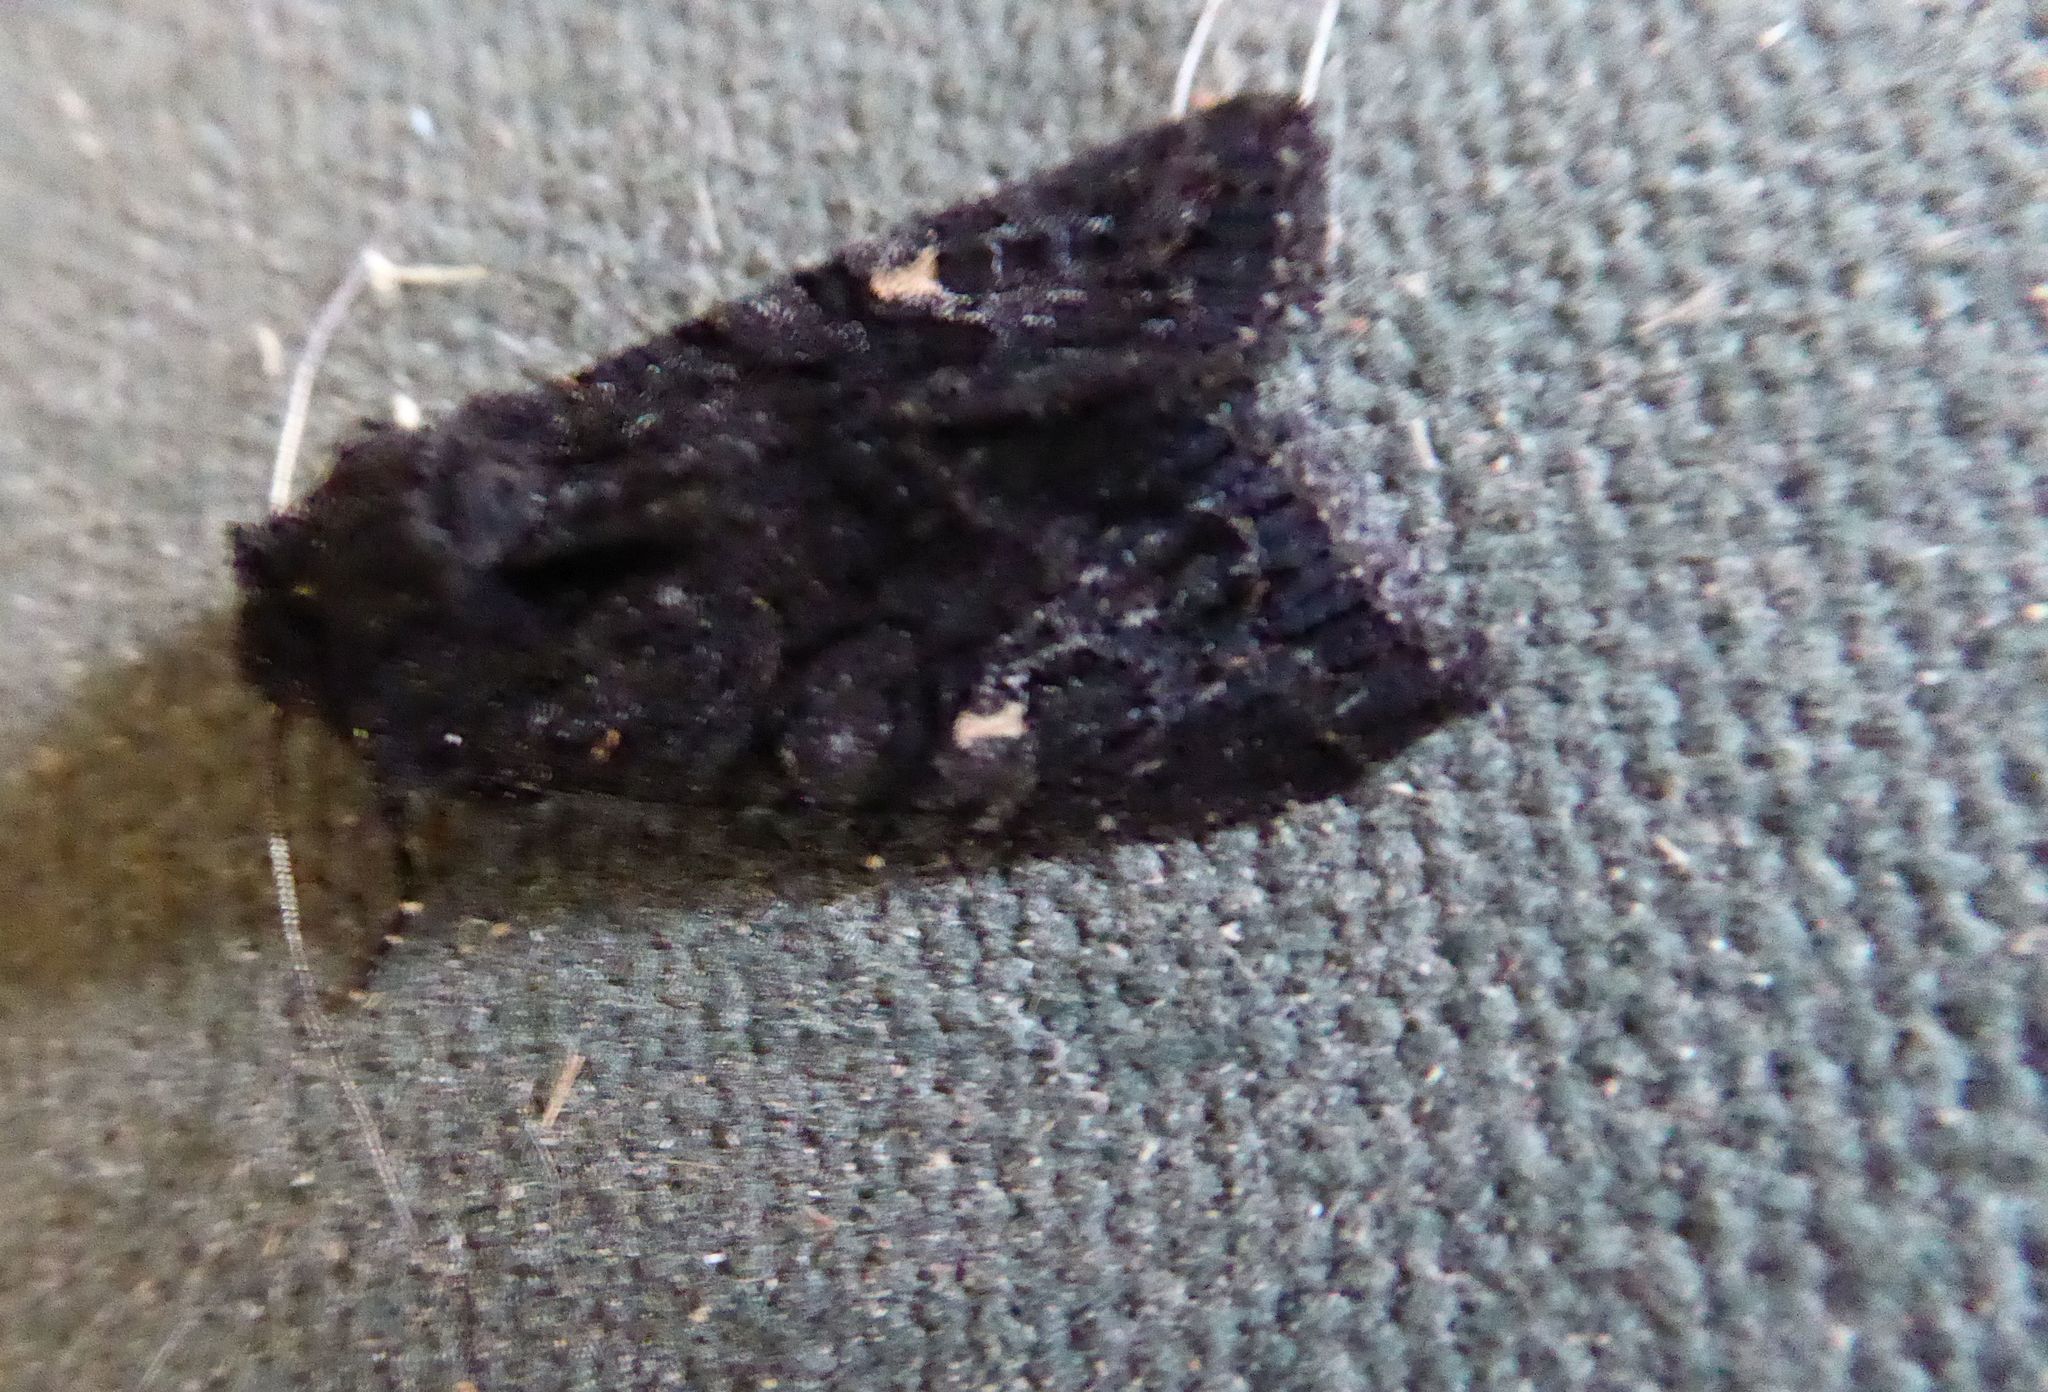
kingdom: Animalia
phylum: Arthropoda
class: Insecta
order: Lepidoptera
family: Noctuidae
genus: Neumichtis
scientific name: Neumichtis nigerrima
